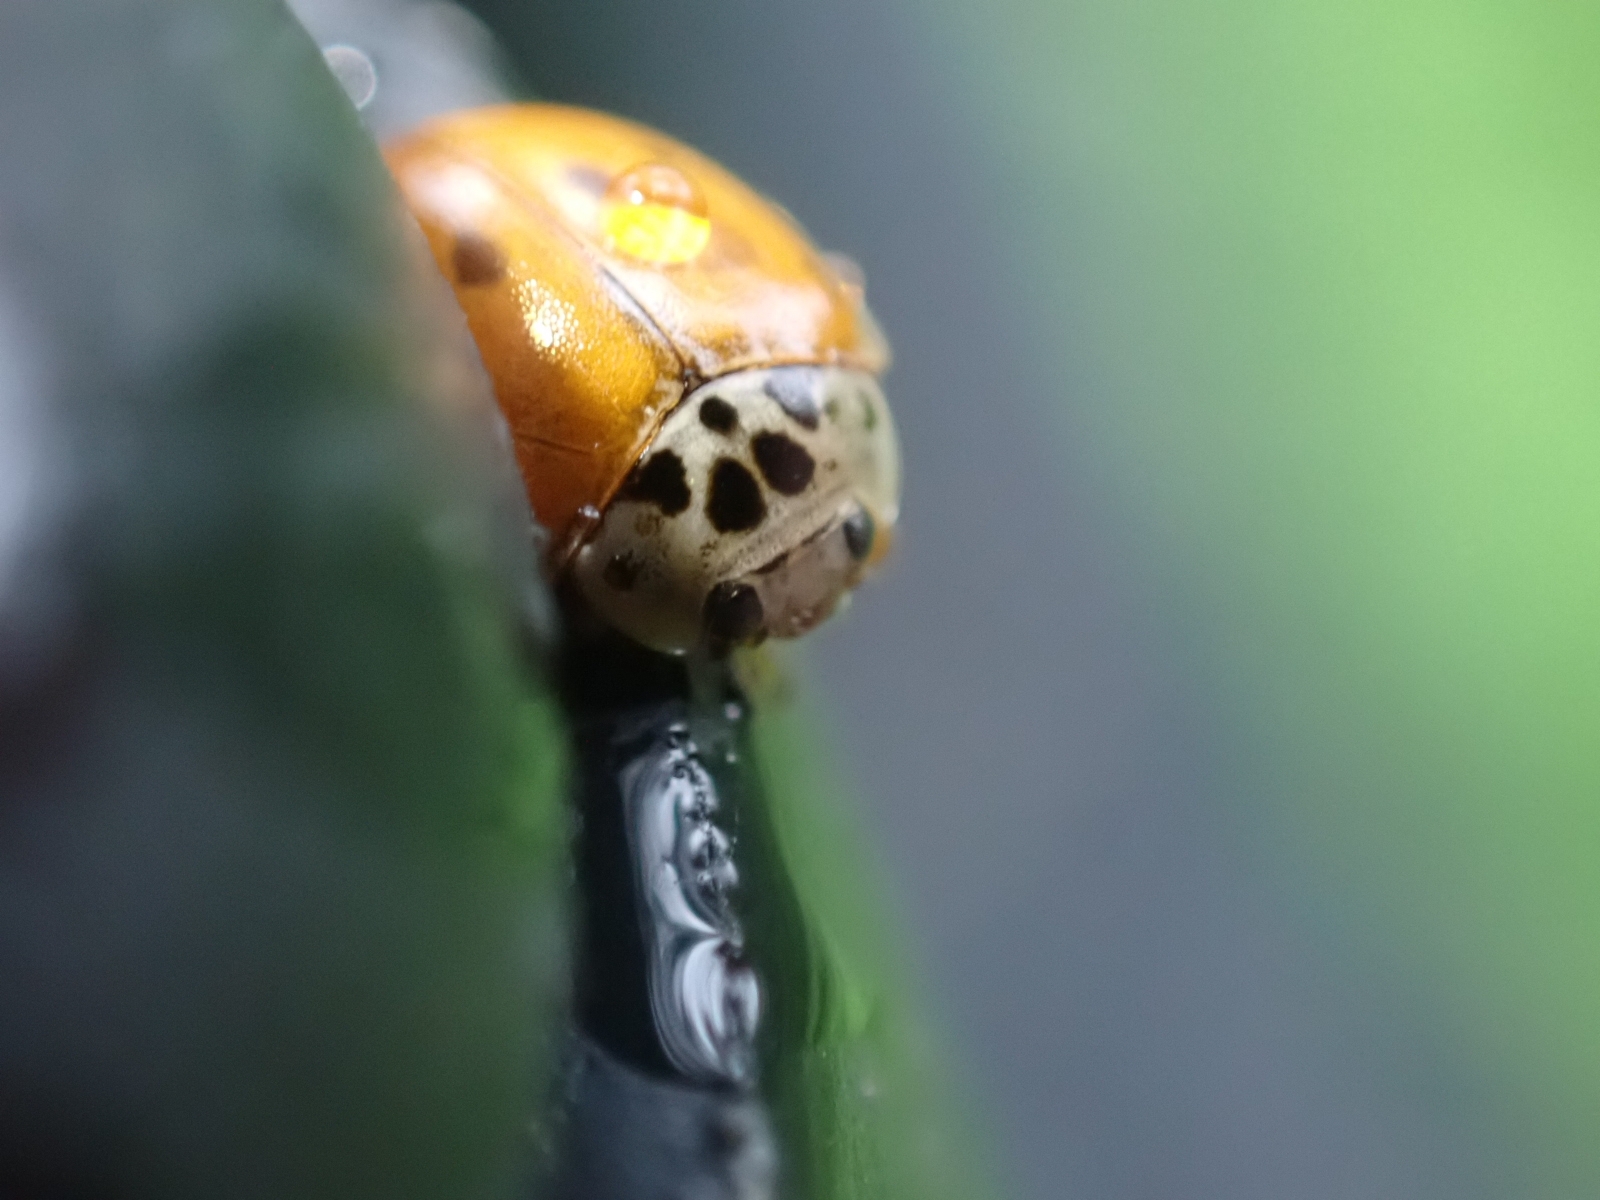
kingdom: Animalia
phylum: Arthropoda
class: Insecta
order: Coleoptera
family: Coccinellidae
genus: Adalia
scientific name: Adalia decempunctata
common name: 10-spot ladybird
